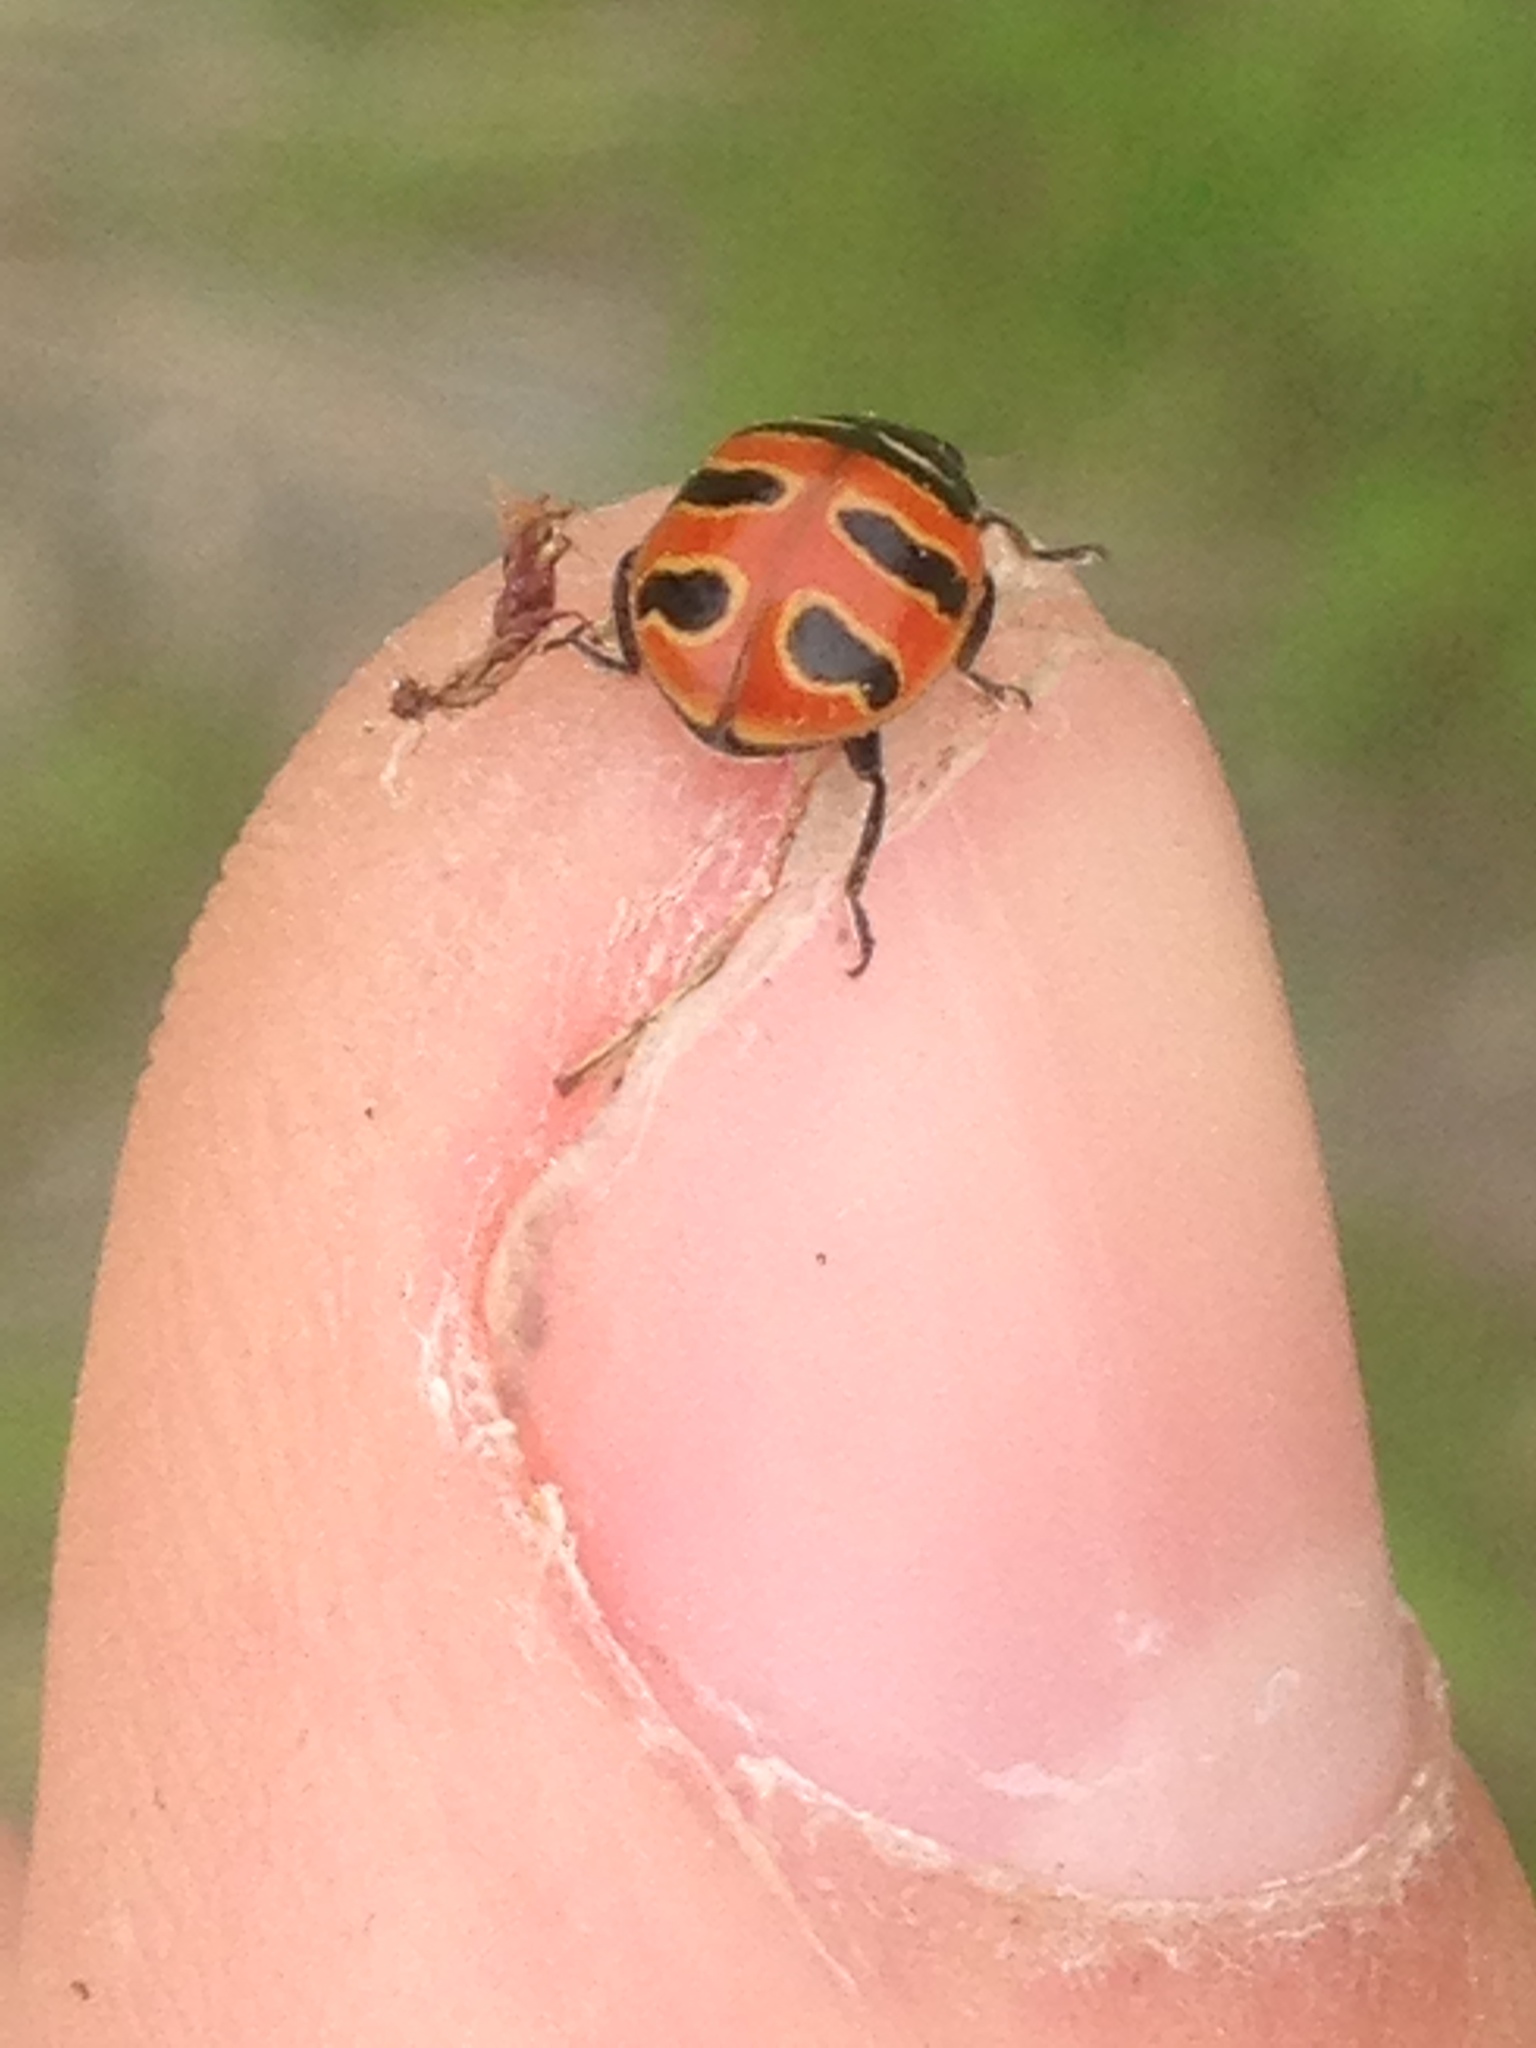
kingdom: Animalia
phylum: Arthropoda
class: Insecta
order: Coleoptera
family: Coccinellidae
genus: Coccinella
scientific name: Coccinella trifasciata
